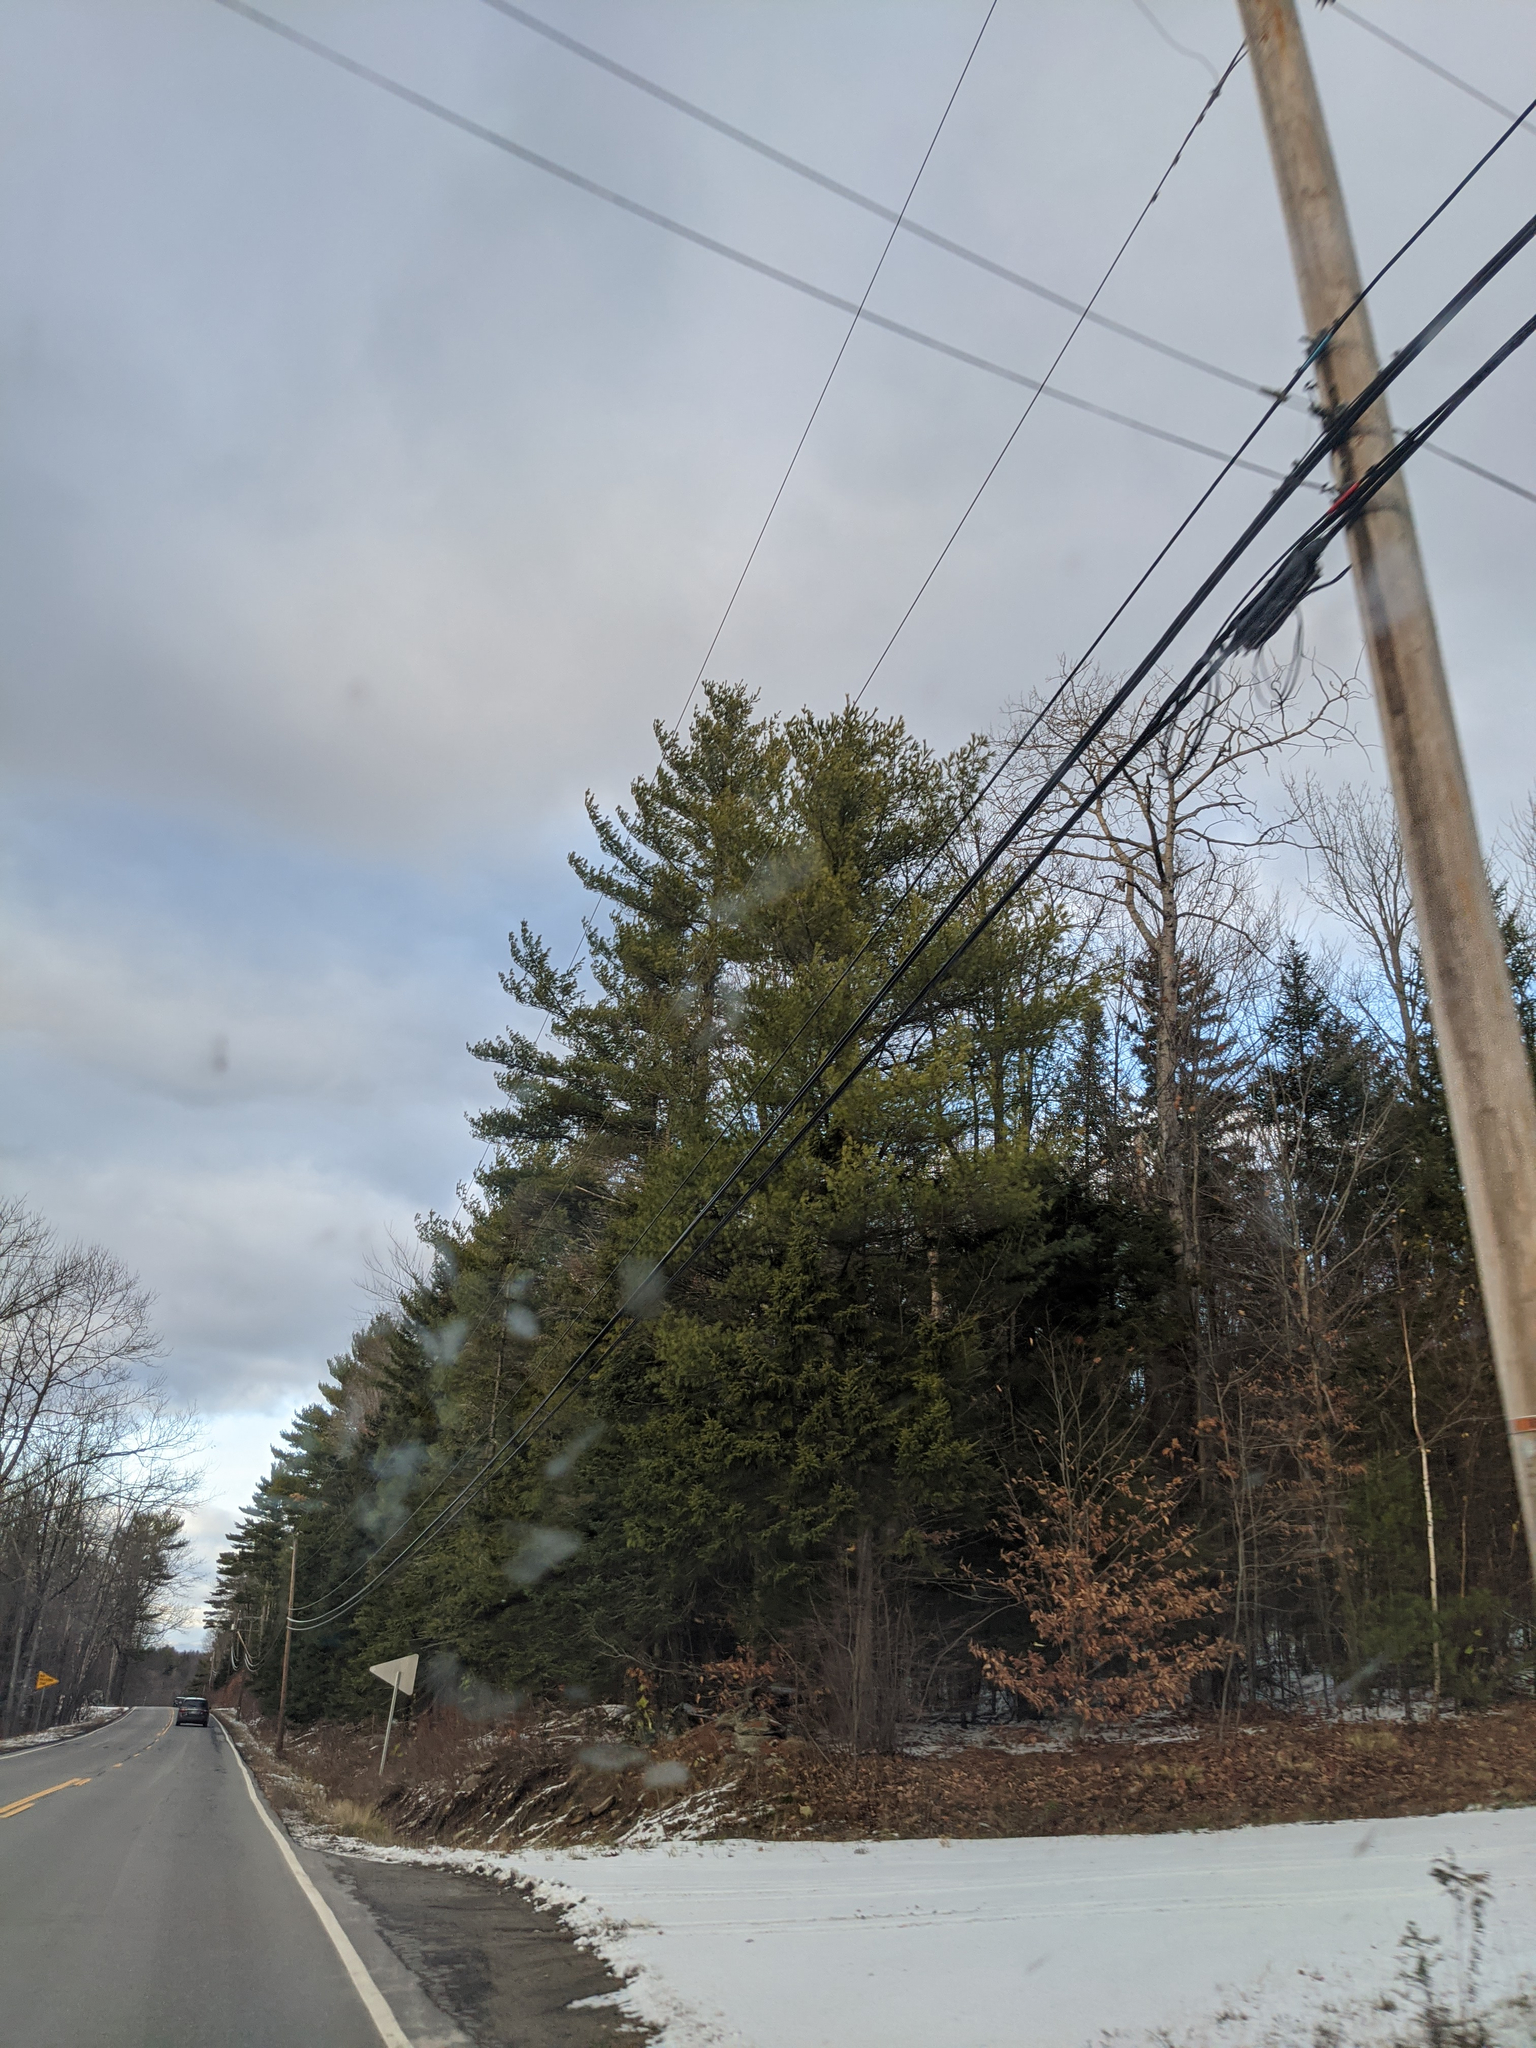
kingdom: Plantae
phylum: Tracheophyta
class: Pinopsida
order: Pinales
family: Pinaceae
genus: Pinus
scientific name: Pinus strobus
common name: Weymouth pine
